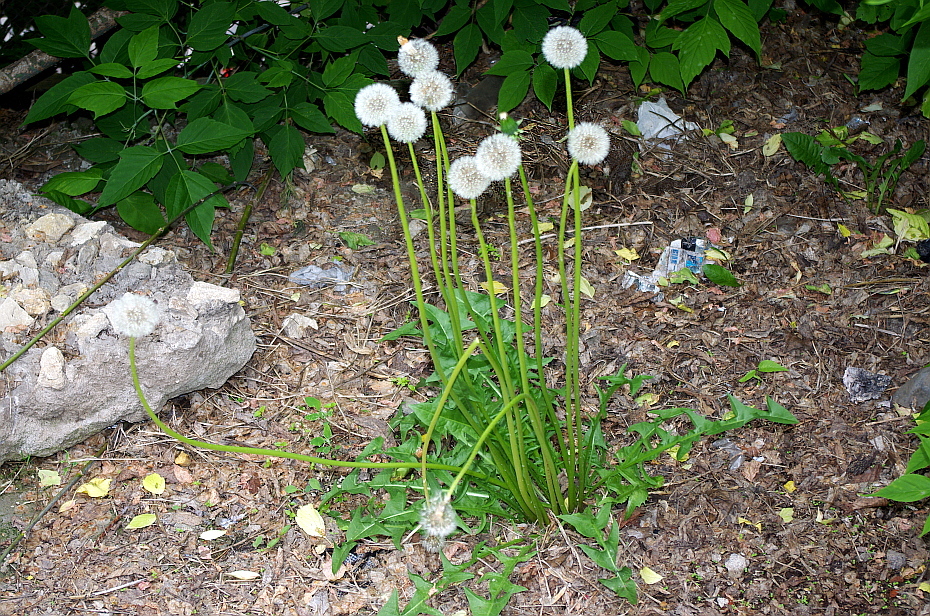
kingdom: Plantae
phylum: Tracheophyta
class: Magnoliopsida
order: Asterales
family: Asteraceae
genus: Taraxacum
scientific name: Taraxacum officinale
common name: Common dandelion
